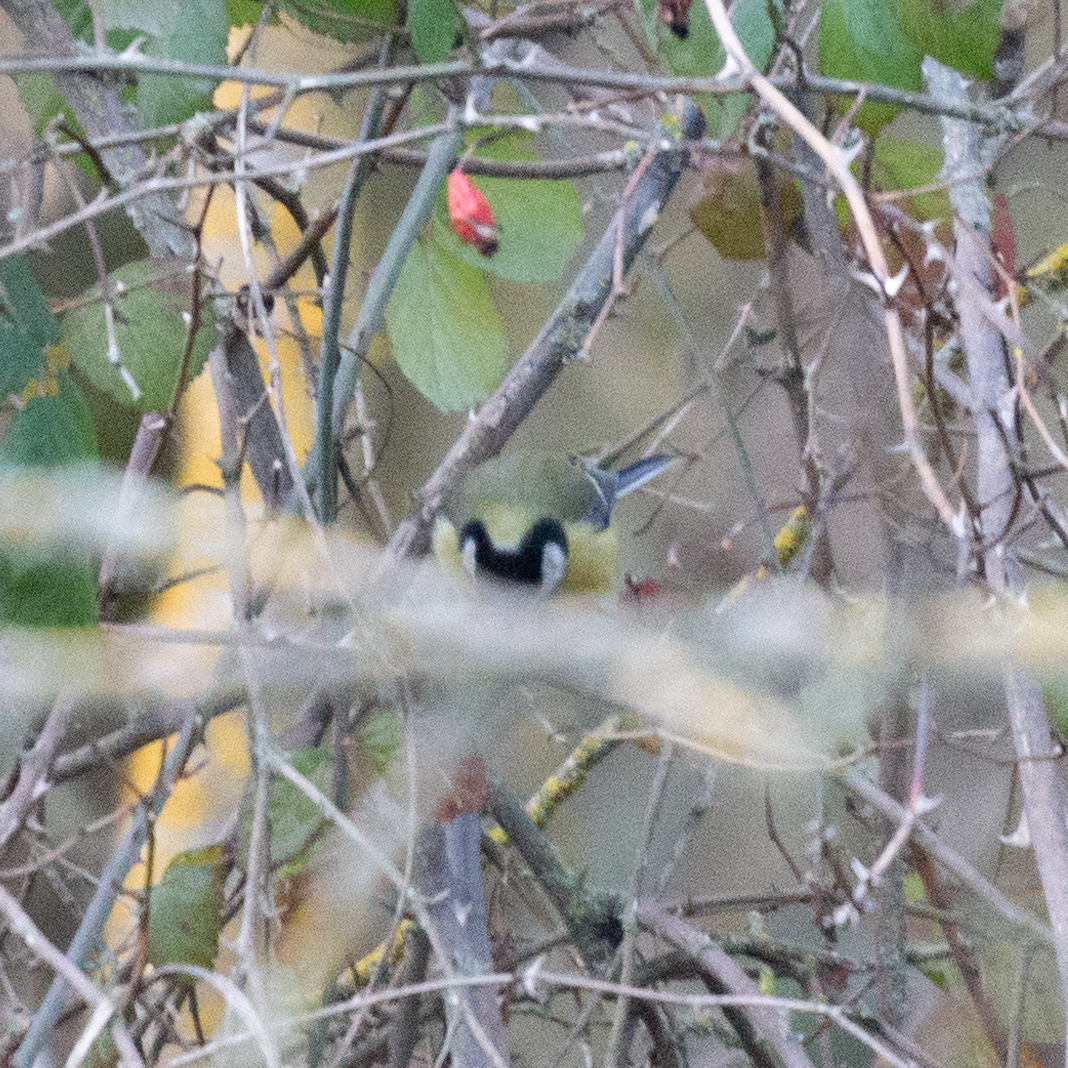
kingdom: Animalia
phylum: Chordata
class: Aves
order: Passeriformes
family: Paridae
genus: Parus
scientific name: Parus major
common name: Great tit
